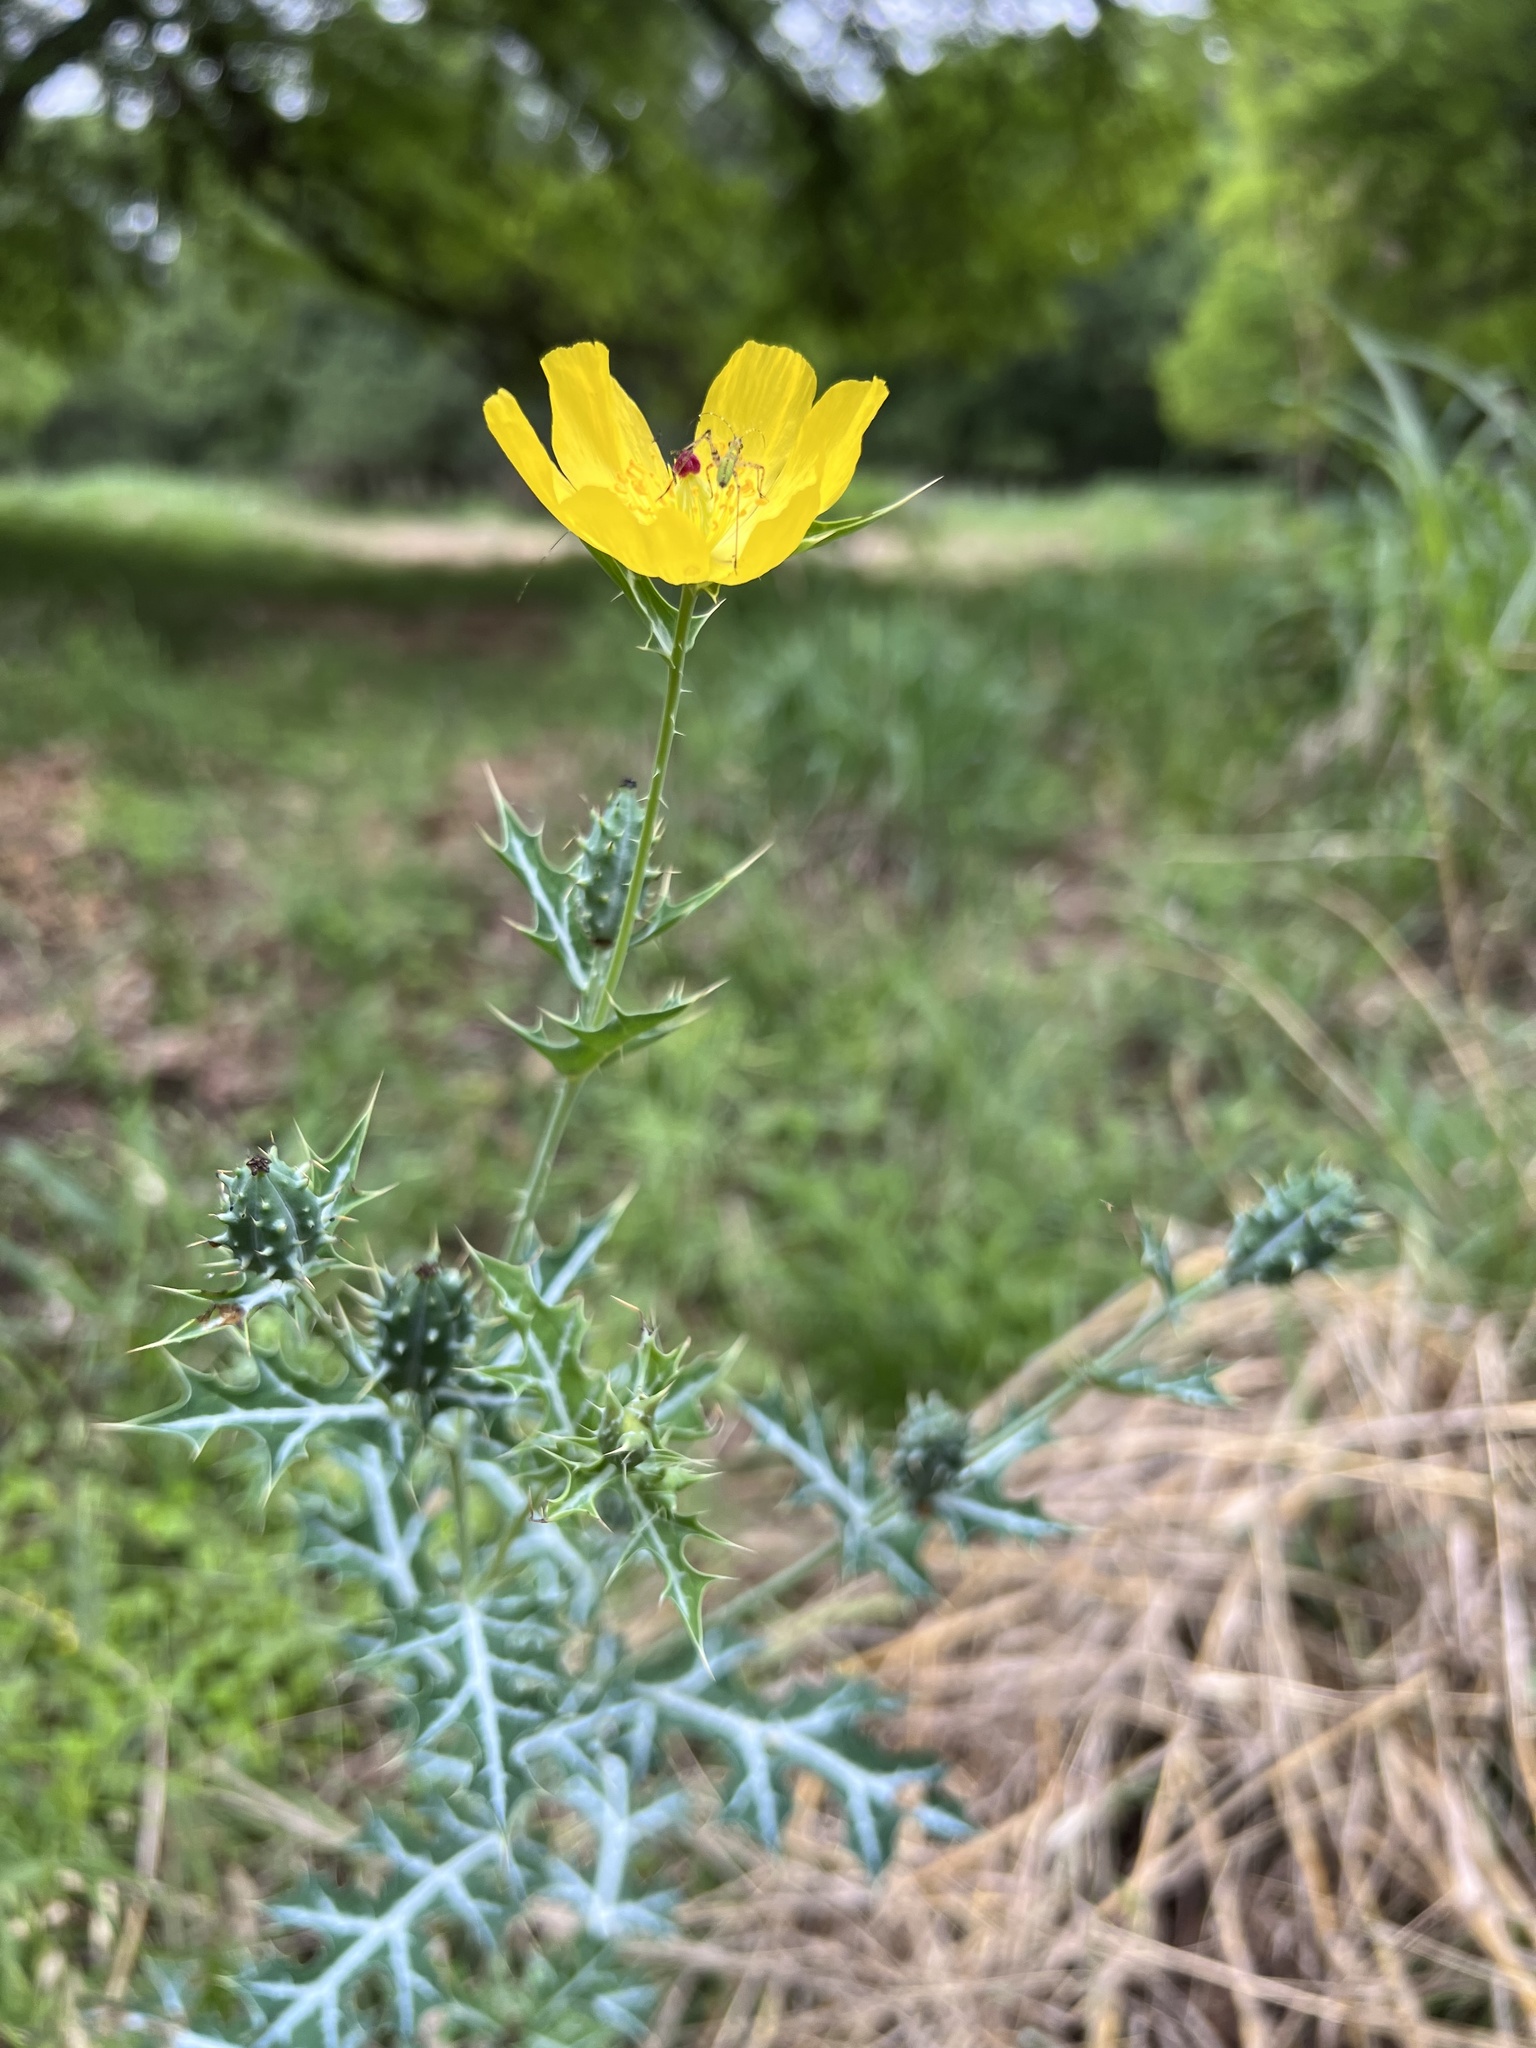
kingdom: Plantae
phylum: Tracheophyta
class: Magnoliopsida
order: Ranunculales
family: Papaveraceae
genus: Argemone
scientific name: Argemone mexicana
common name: Mexican poppy
